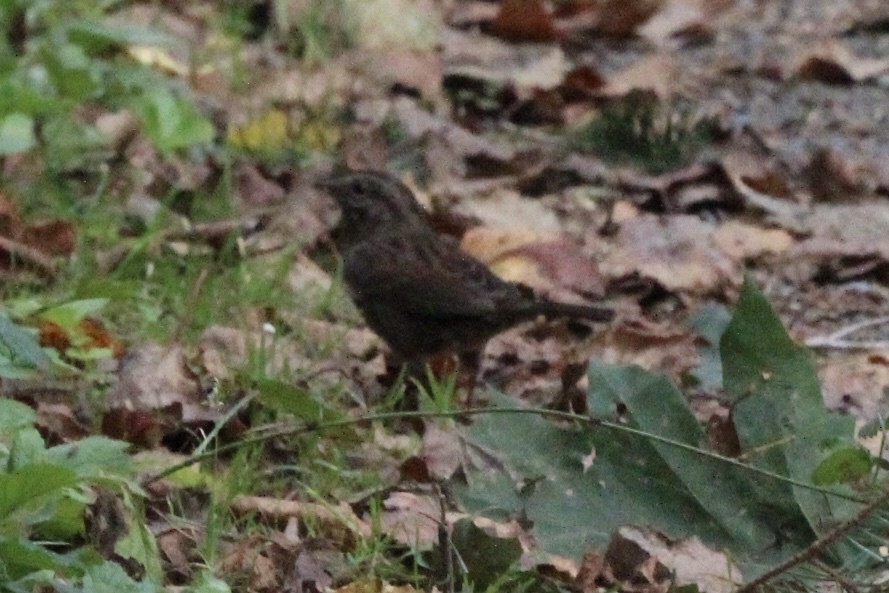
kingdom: Animalia
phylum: Chordata
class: Aves
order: Passeriformes
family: Passerellidae
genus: Melospiza
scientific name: Melospiza melodia
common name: Song sparrow
